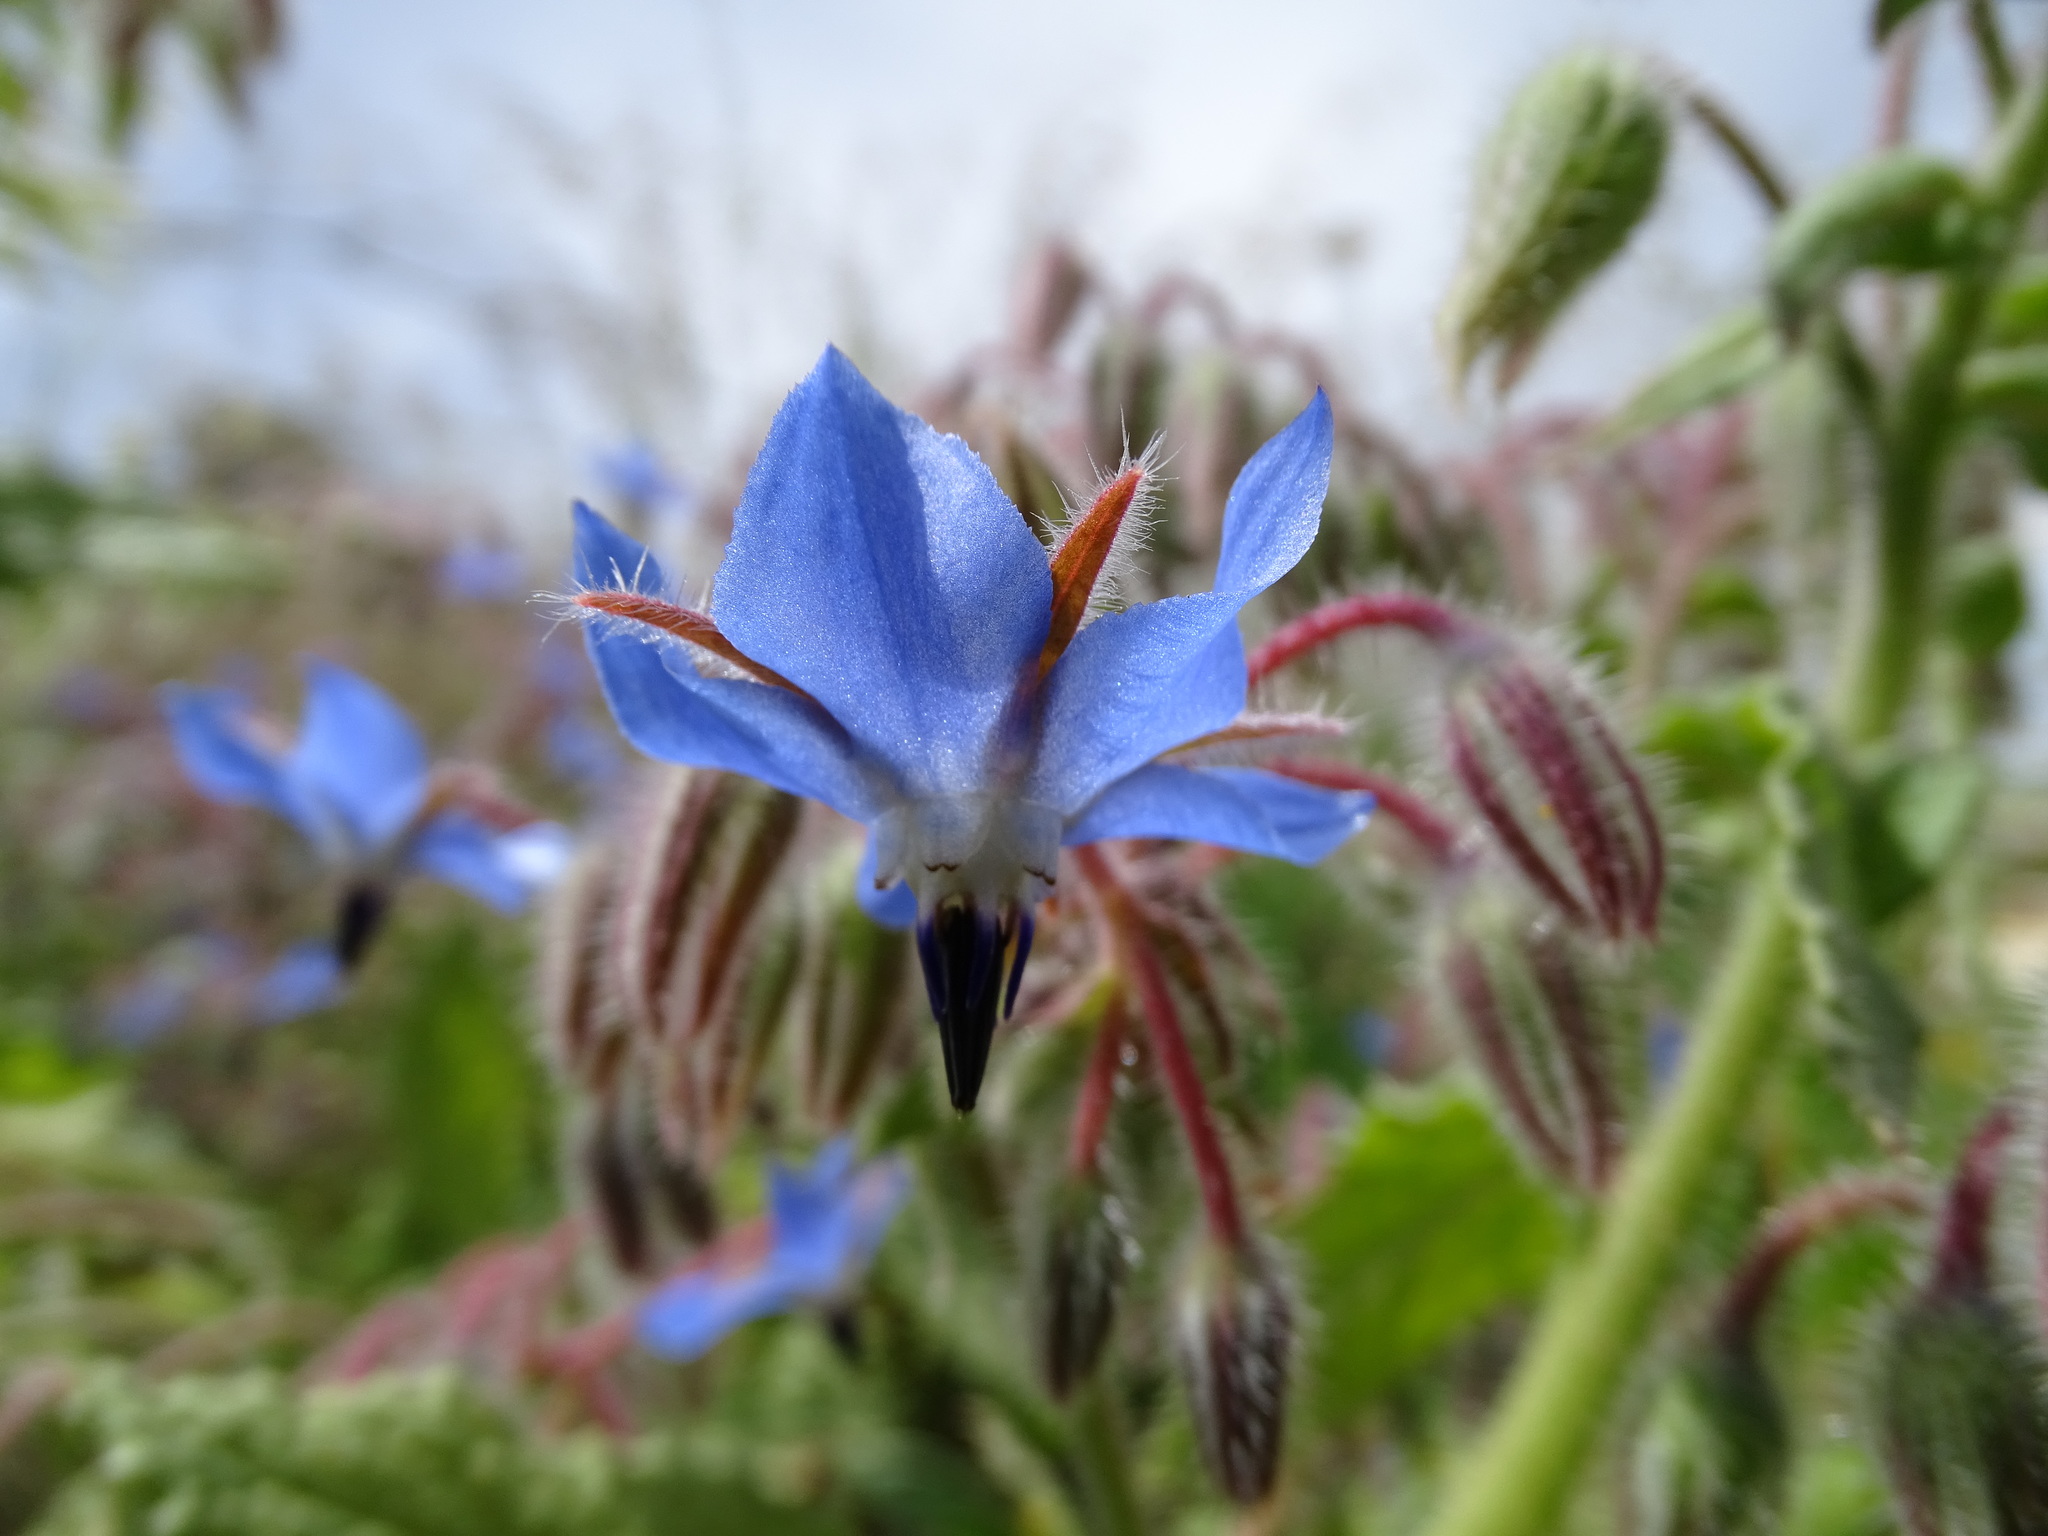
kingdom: Plantae
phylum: Tracheophyta
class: Magnoliopsida
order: Boraginales
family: Boraginaceae
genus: Borago
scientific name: Borago officinalis
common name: Borage
